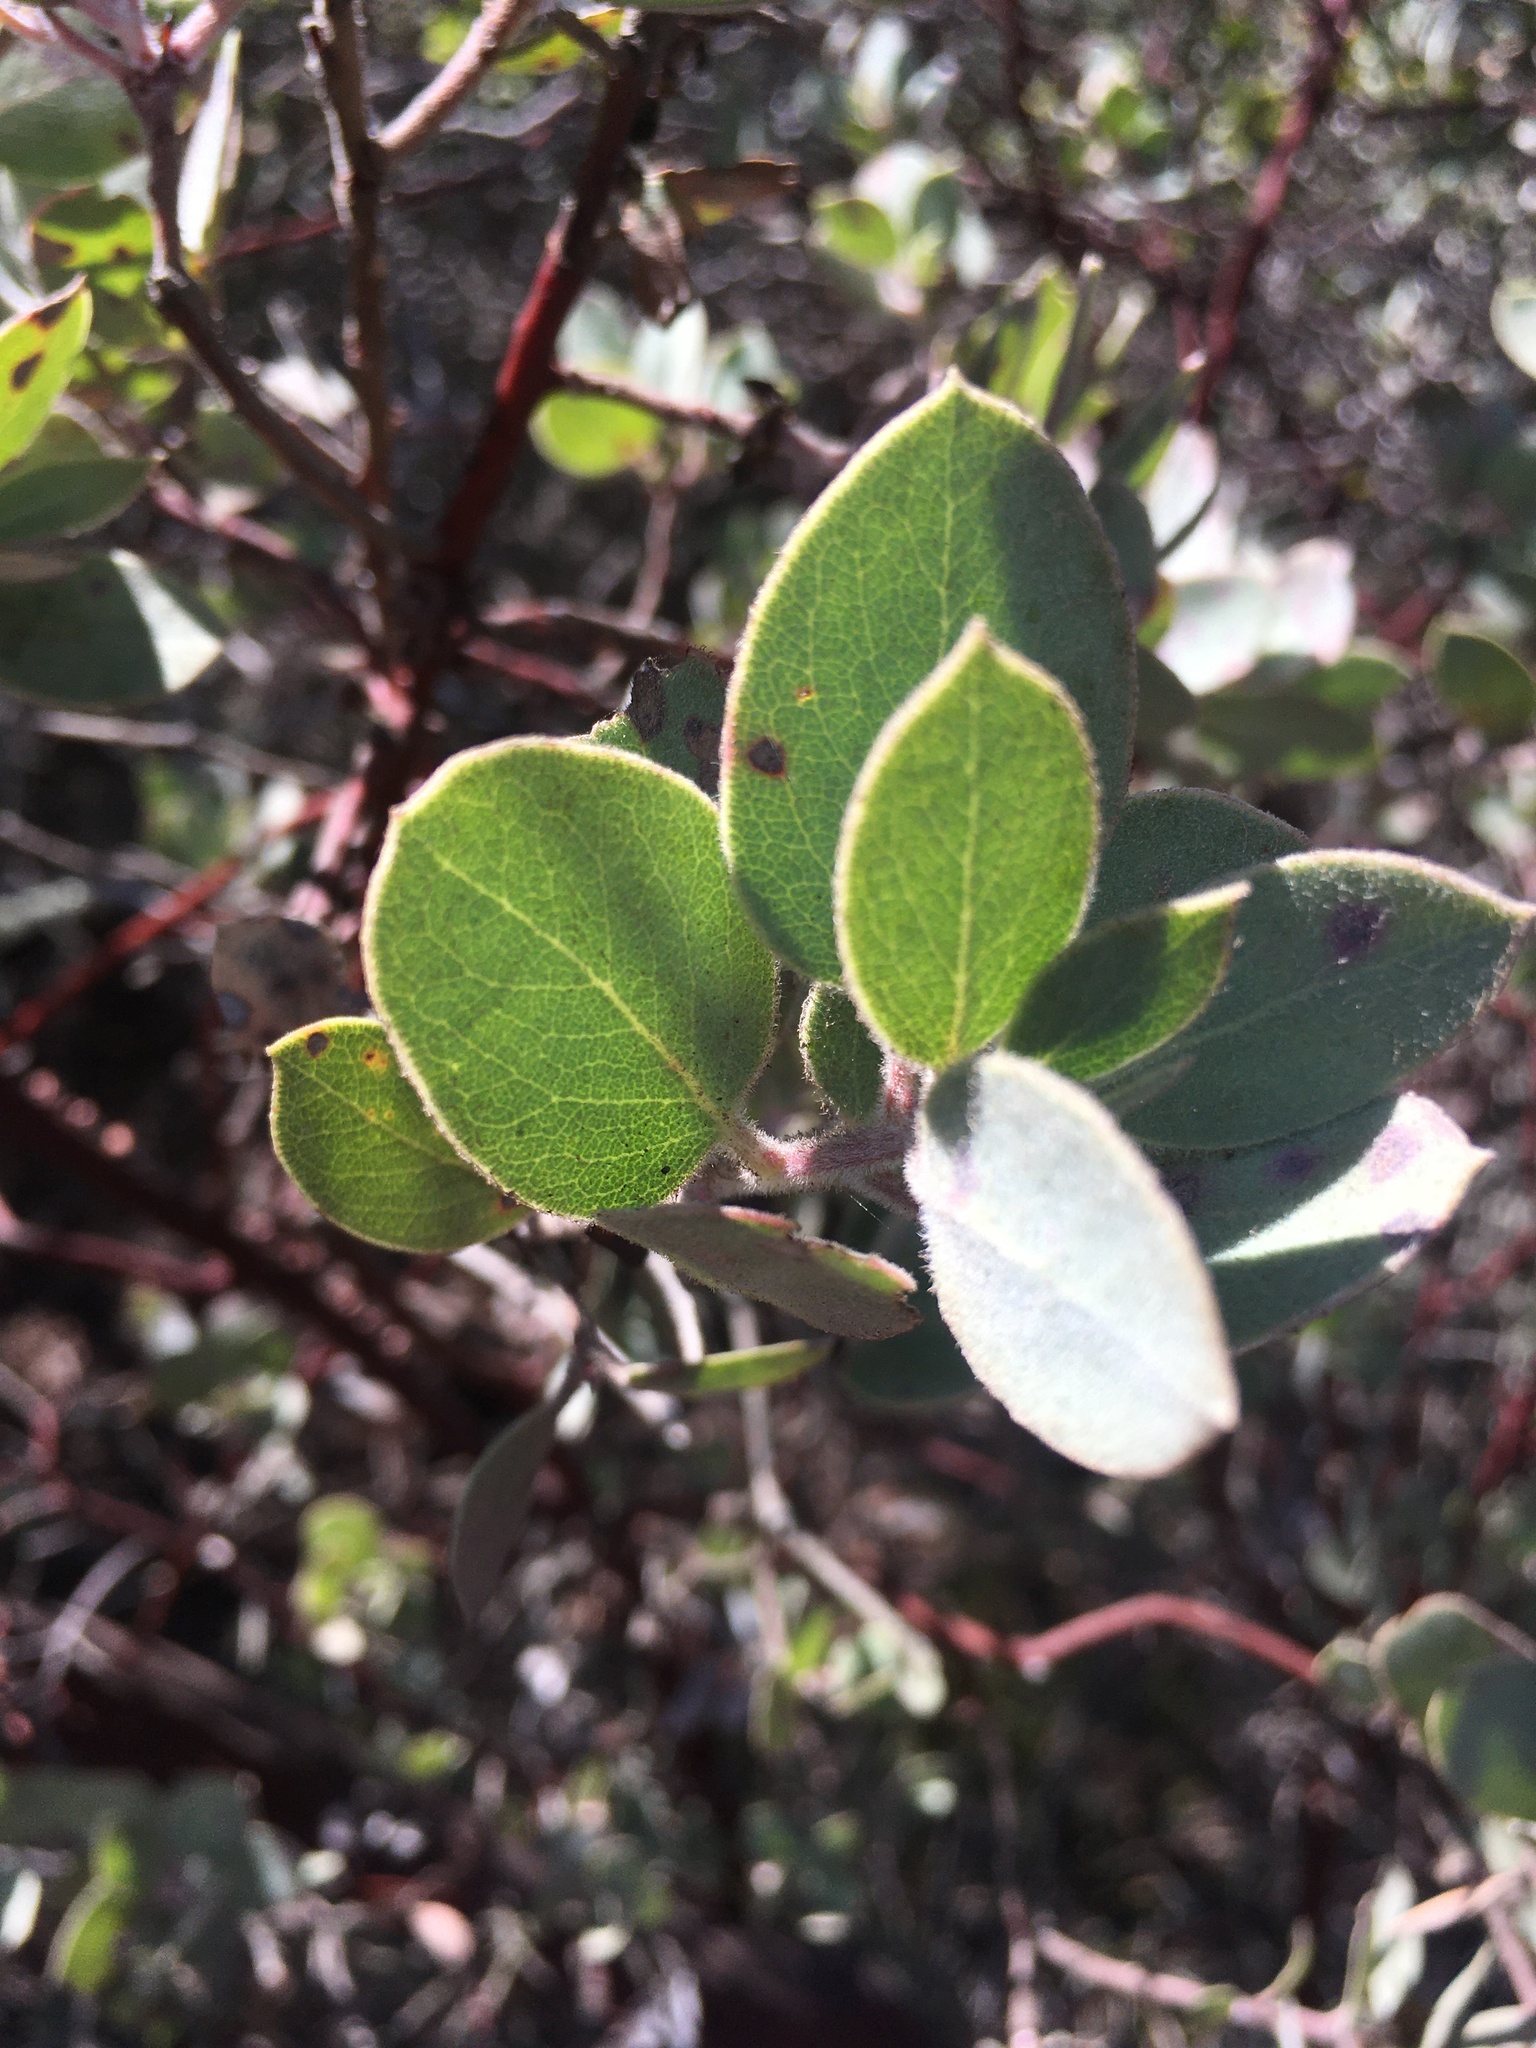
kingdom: Plantae
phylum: Tracheophyta
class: Magnoliopsida
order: Ericales
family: Ericaceae
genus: Arctostaphylos
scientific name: Arctostaphylos obispoensis
